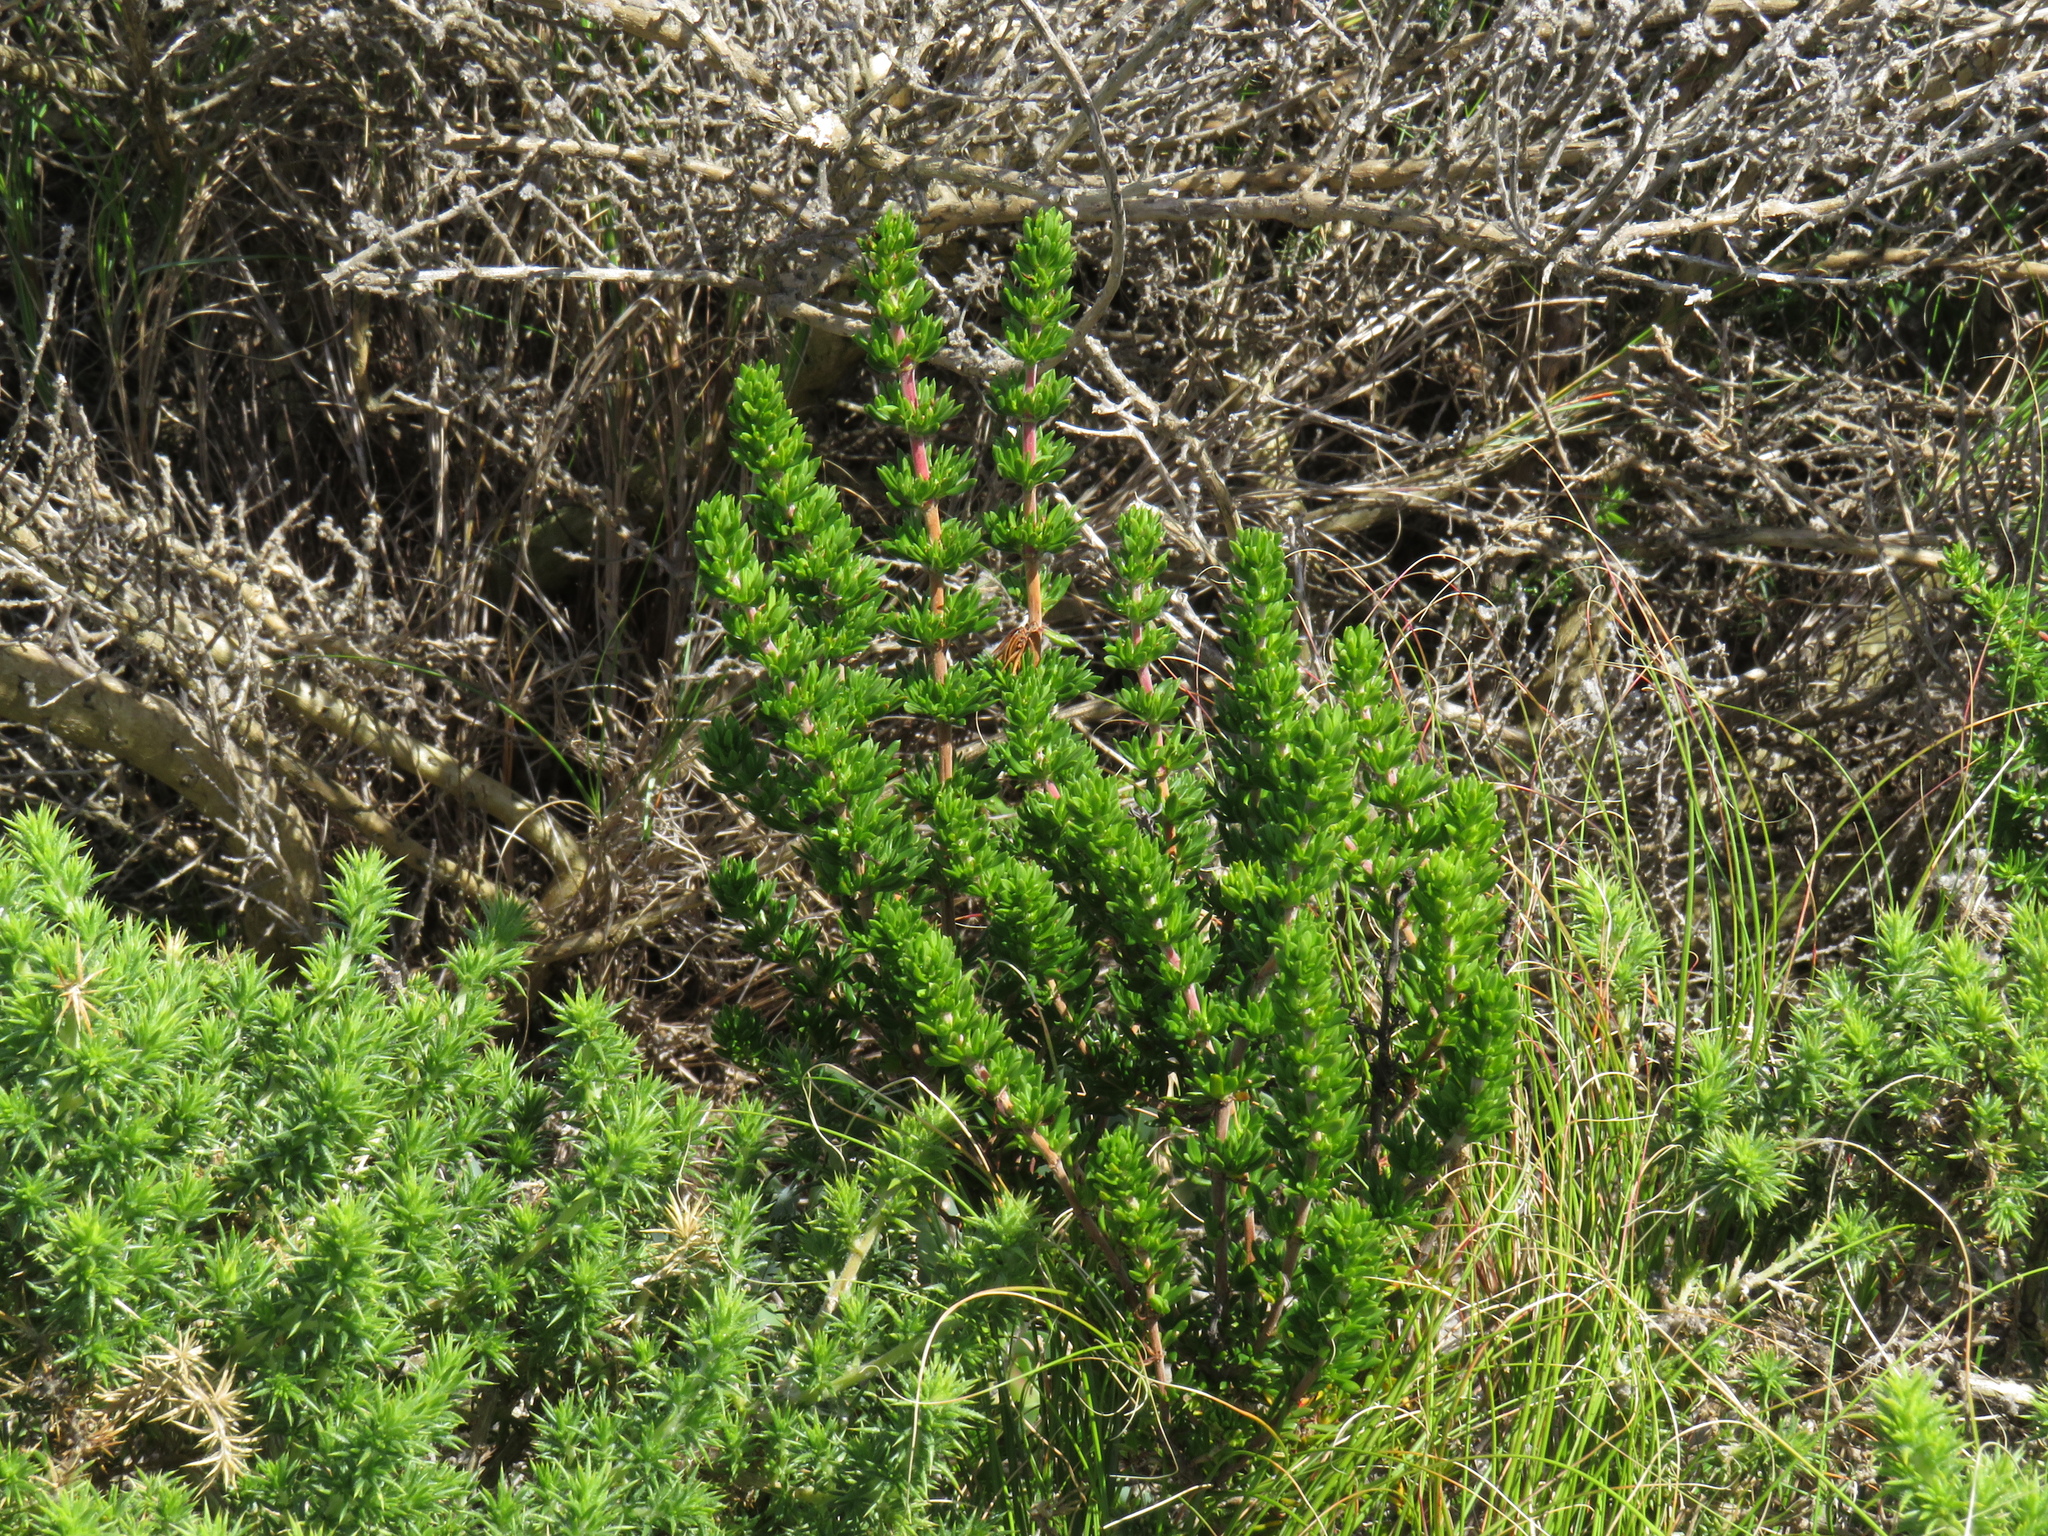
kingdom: Plantae
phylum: Tracheophyta
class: Magnoliopsida
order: Gentianales
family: Rubiaceae
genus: Anthospermum
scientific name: Anthospermum aethiopicum
